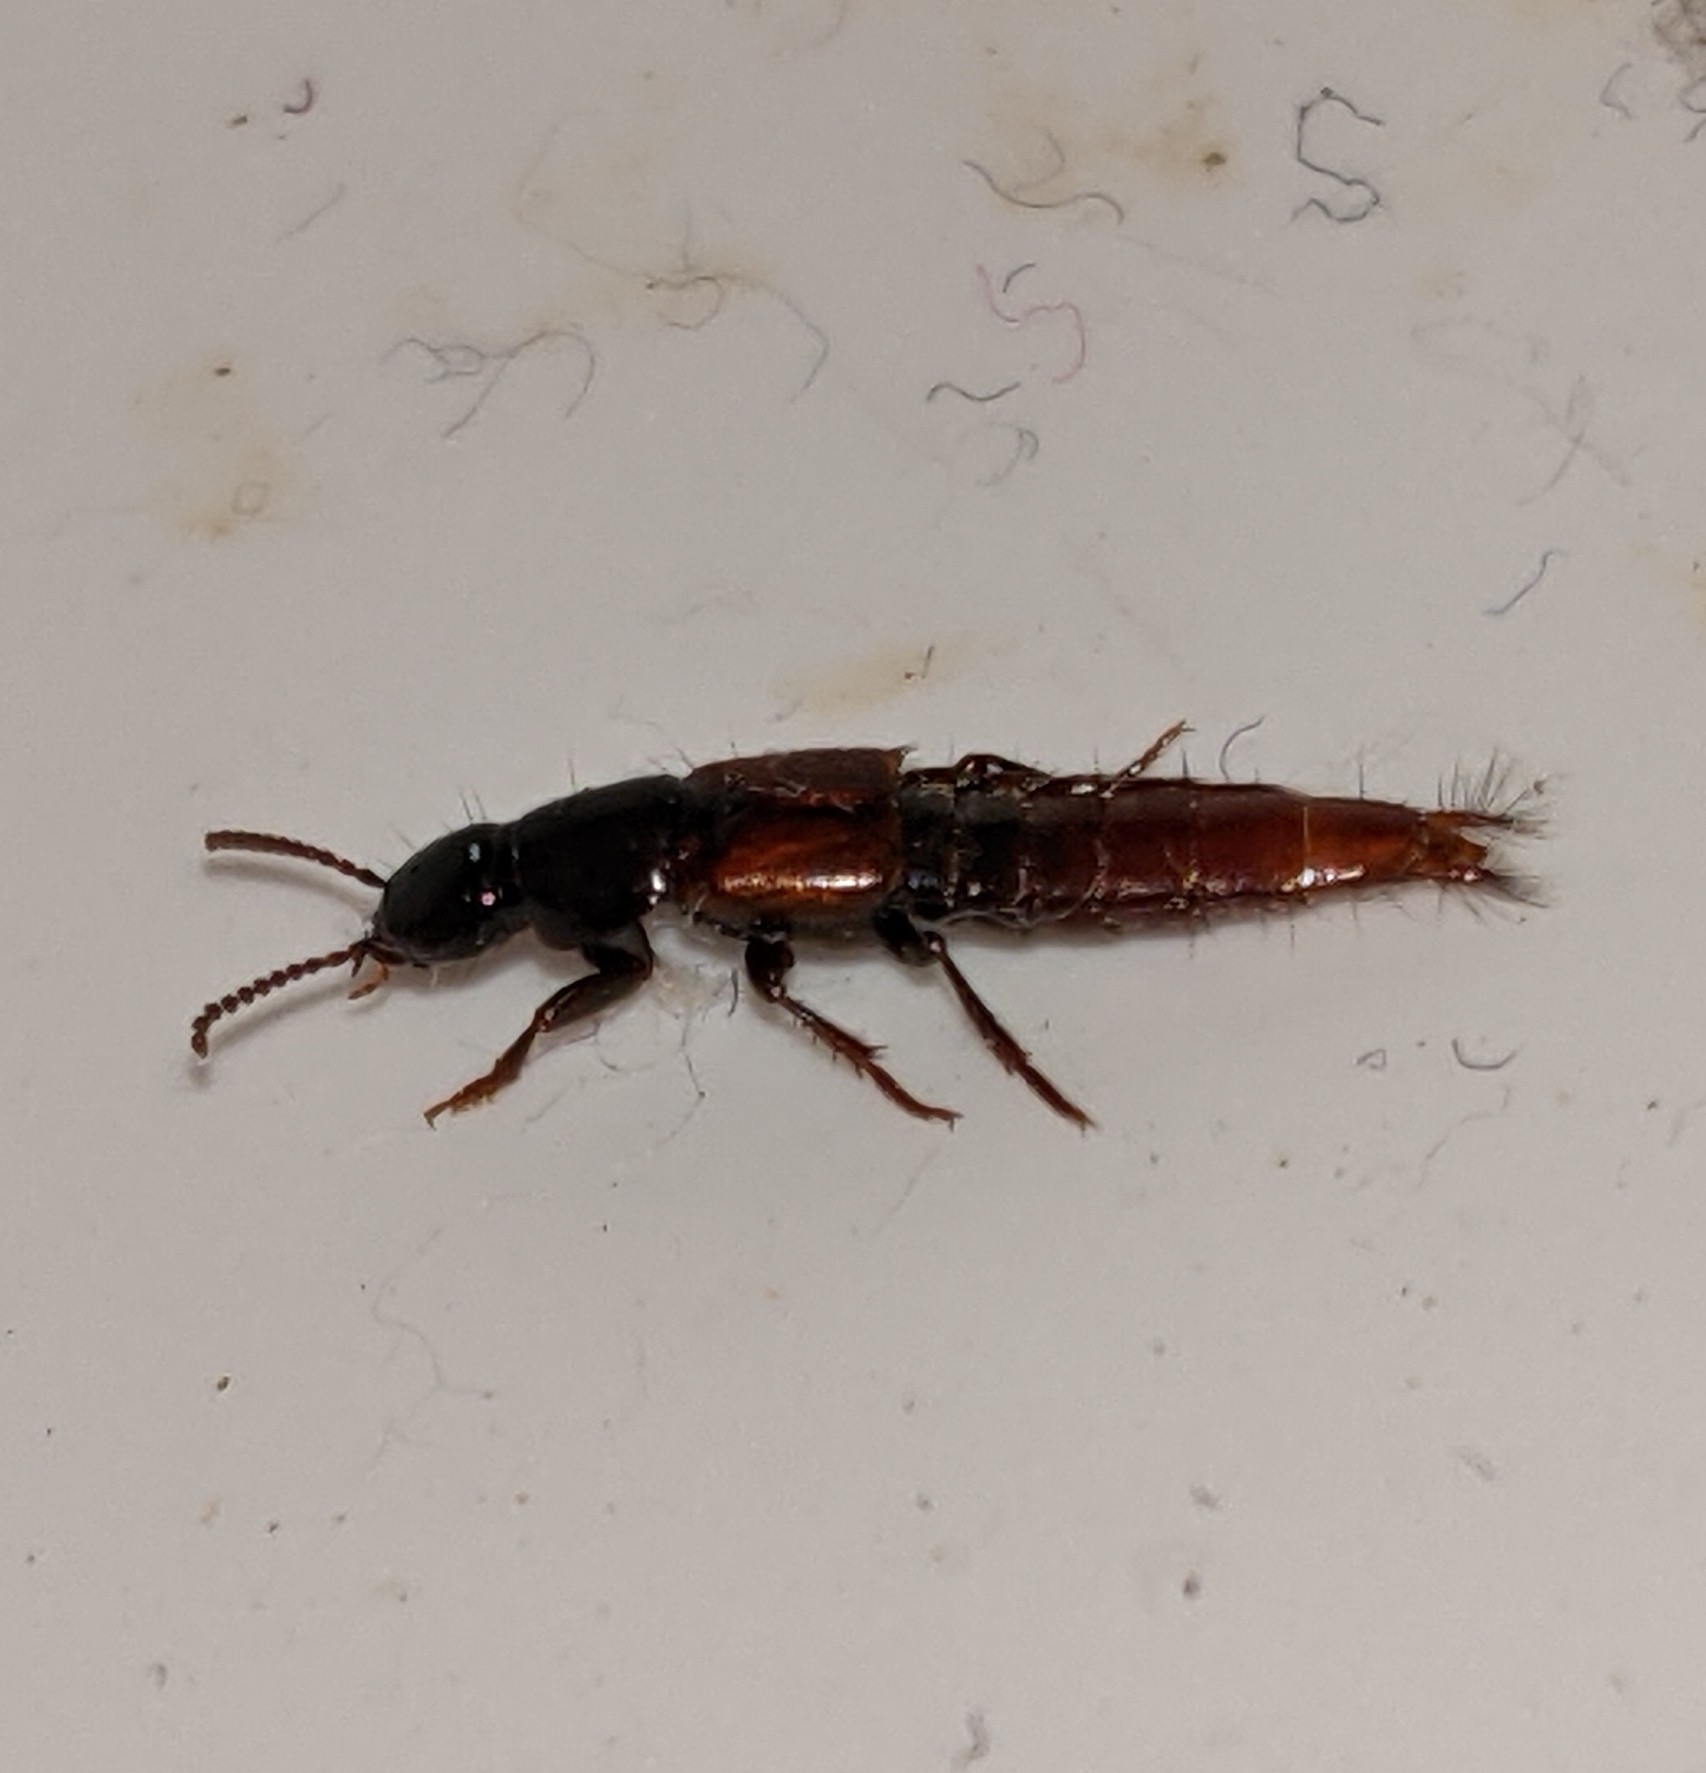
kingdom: Animalia
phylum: Arthropoda
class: Insecta
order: Coleoptera
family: Staphylinidae
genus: Quedius
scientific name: Quedius erythrogaster
